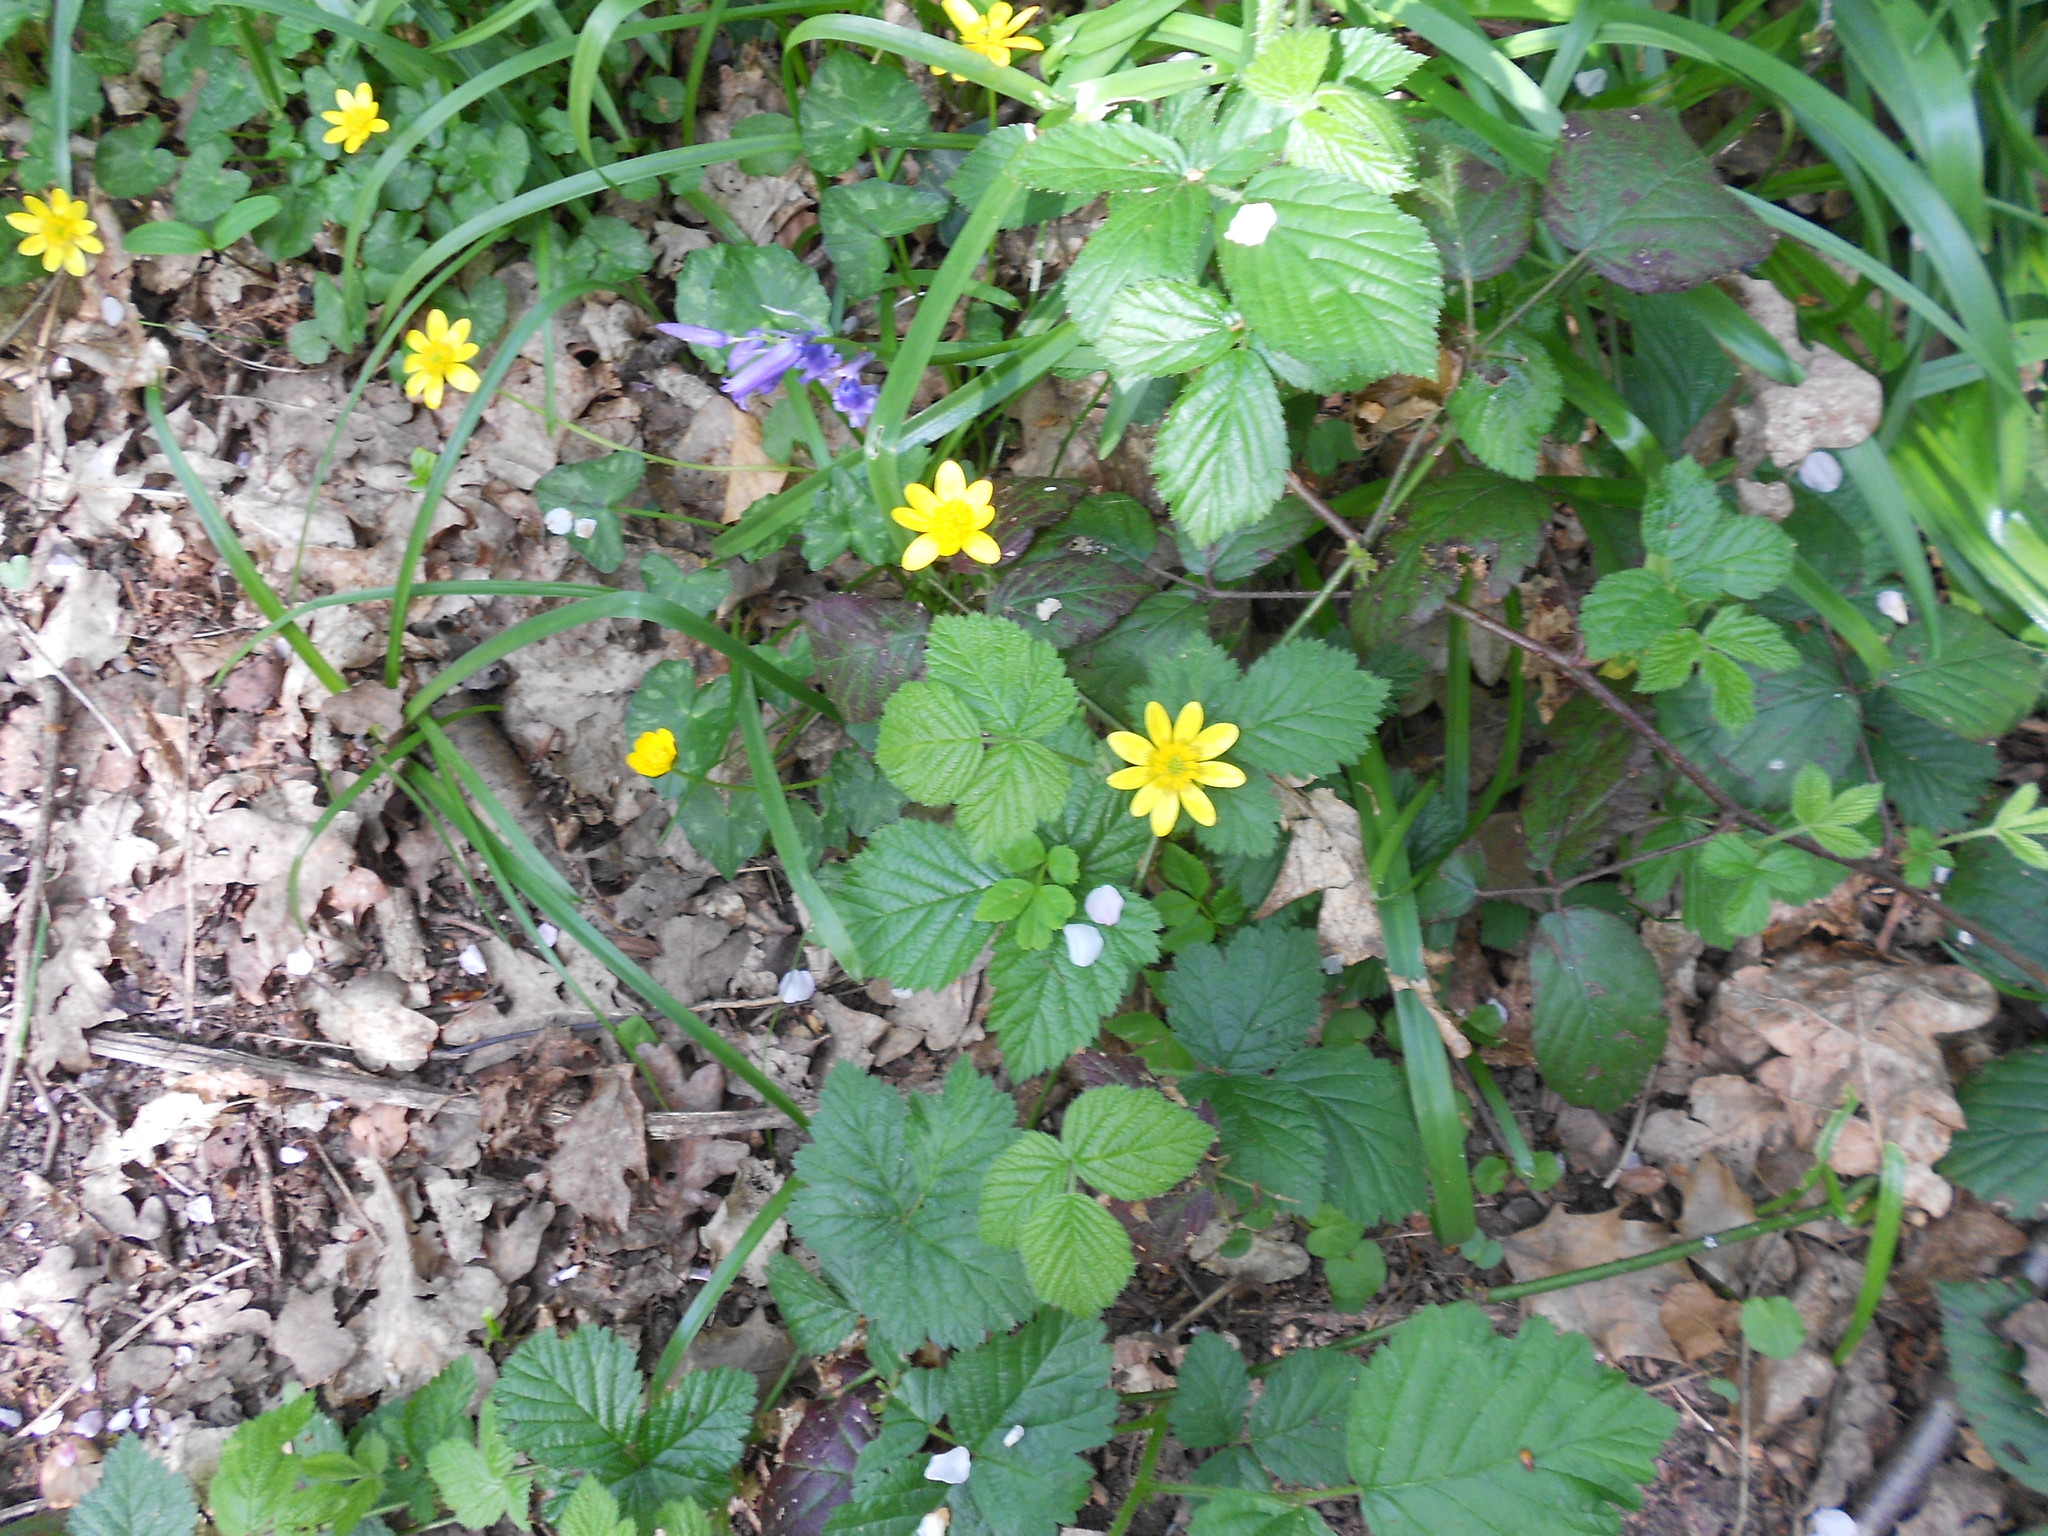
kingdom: Plantae
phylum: Tracheophyta
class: Magnoliopsida
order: Ranunculales
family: Ranunculaceae
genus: Ficaria
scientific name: Ficaria verna
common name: Lesser celandine
